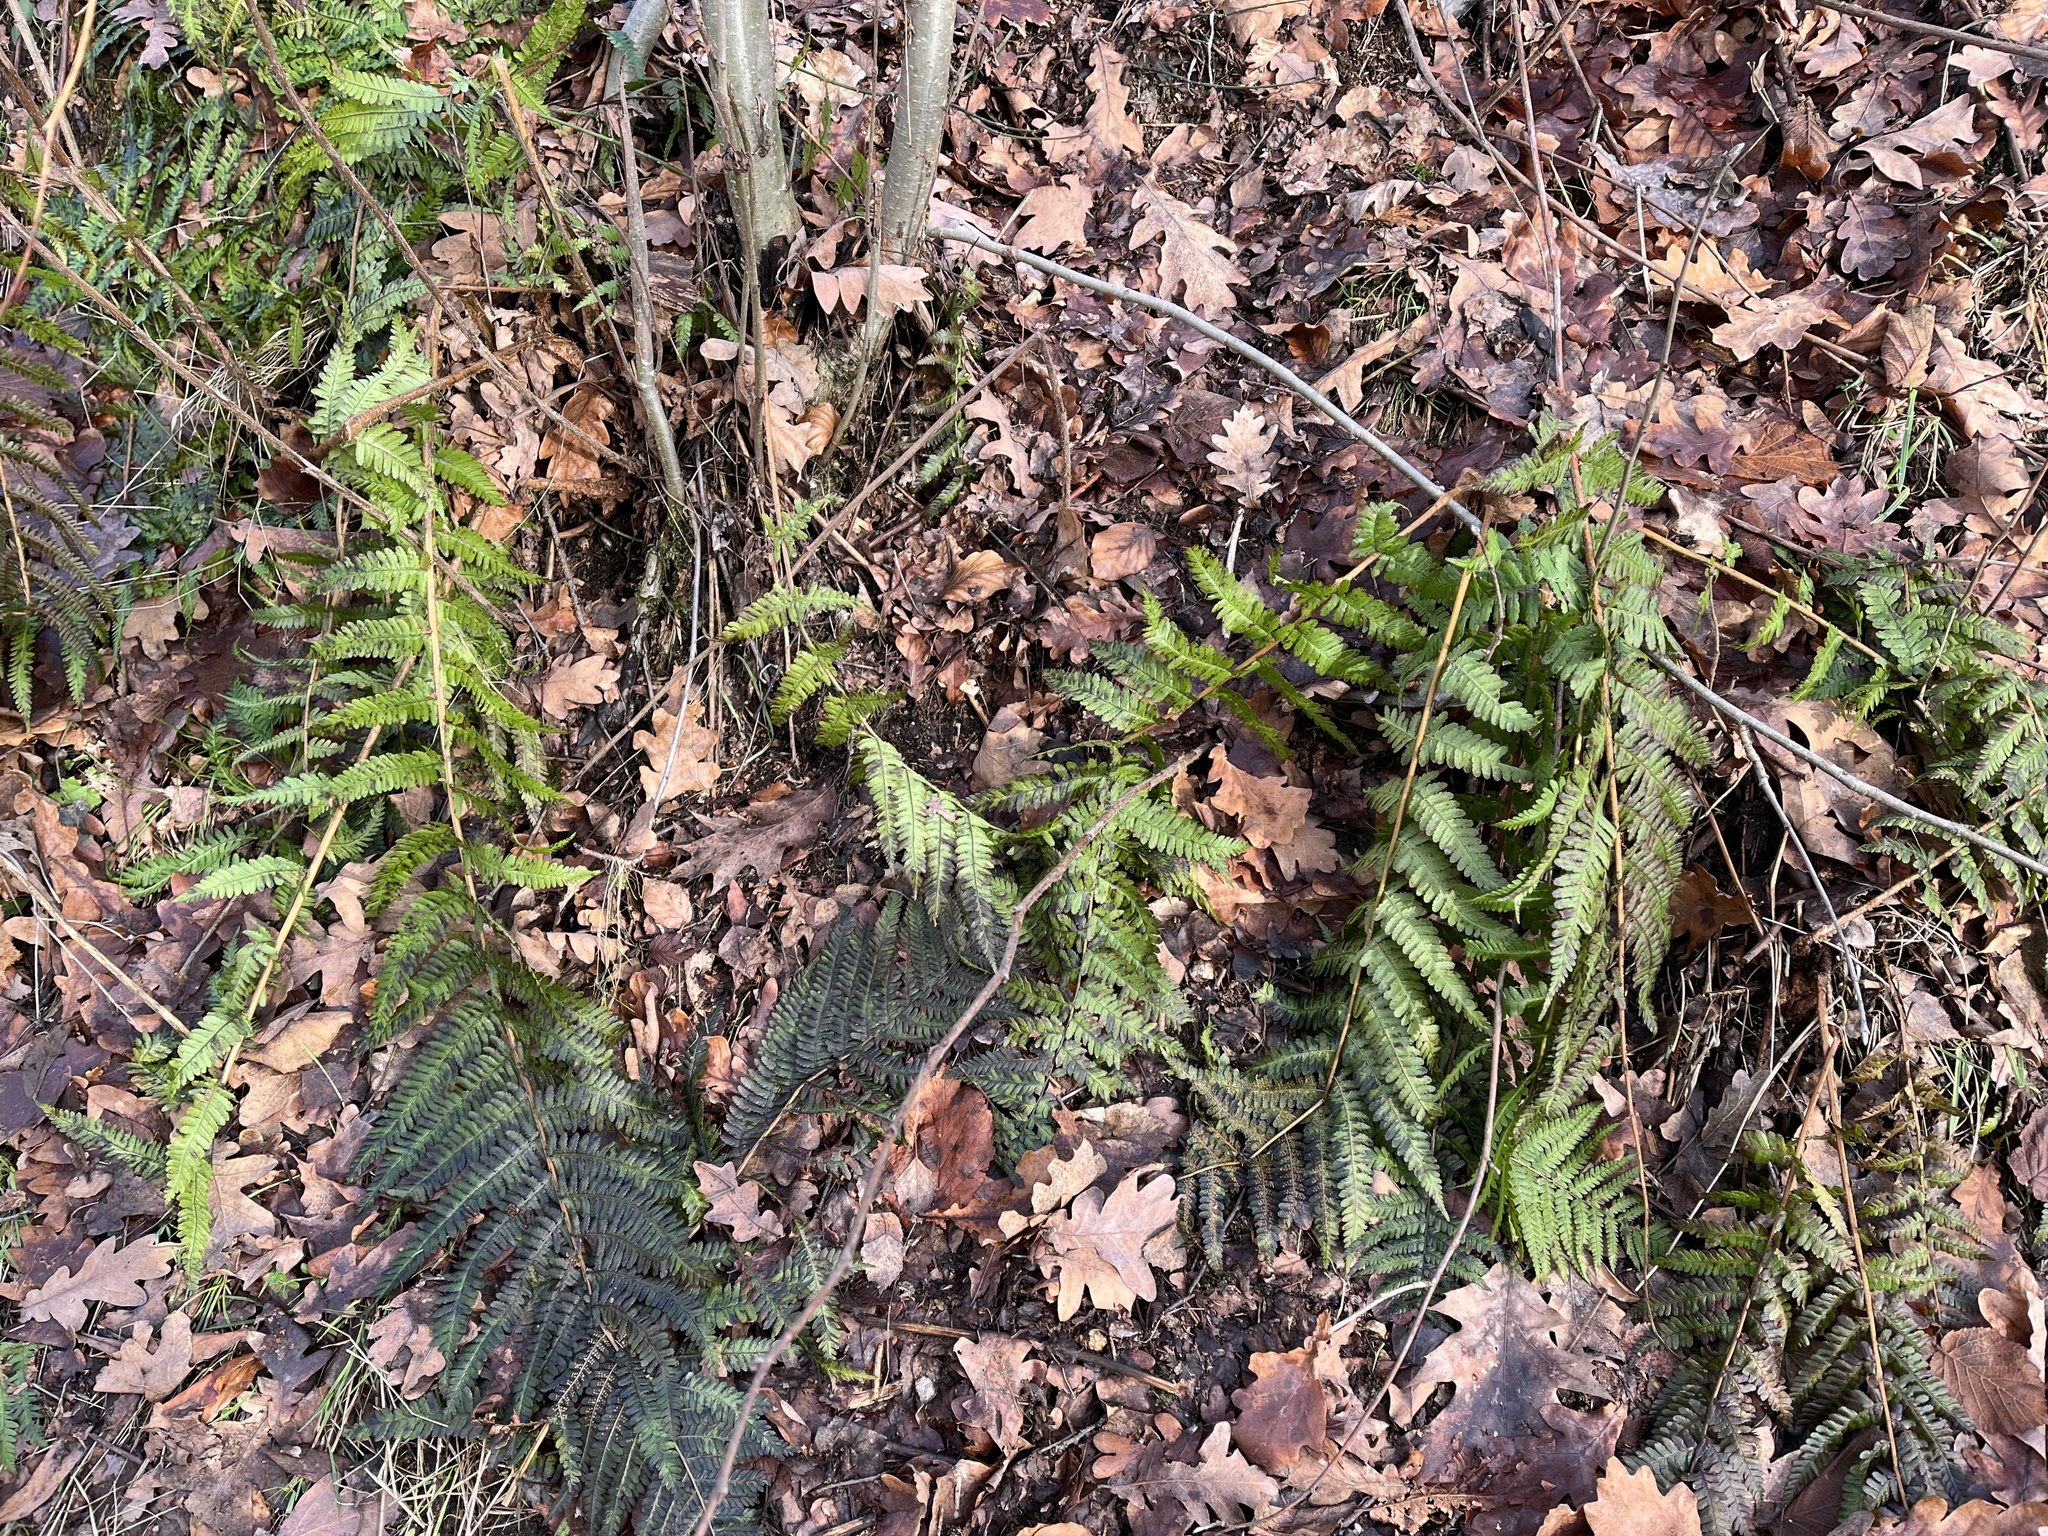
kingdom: Plantae
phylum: Tracheophyta
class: Polypodiopsida
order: Polypodiales
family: Dryopteridaceae
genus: Dryopteris
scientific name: Dryopteris filix-mas
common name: Male fern
